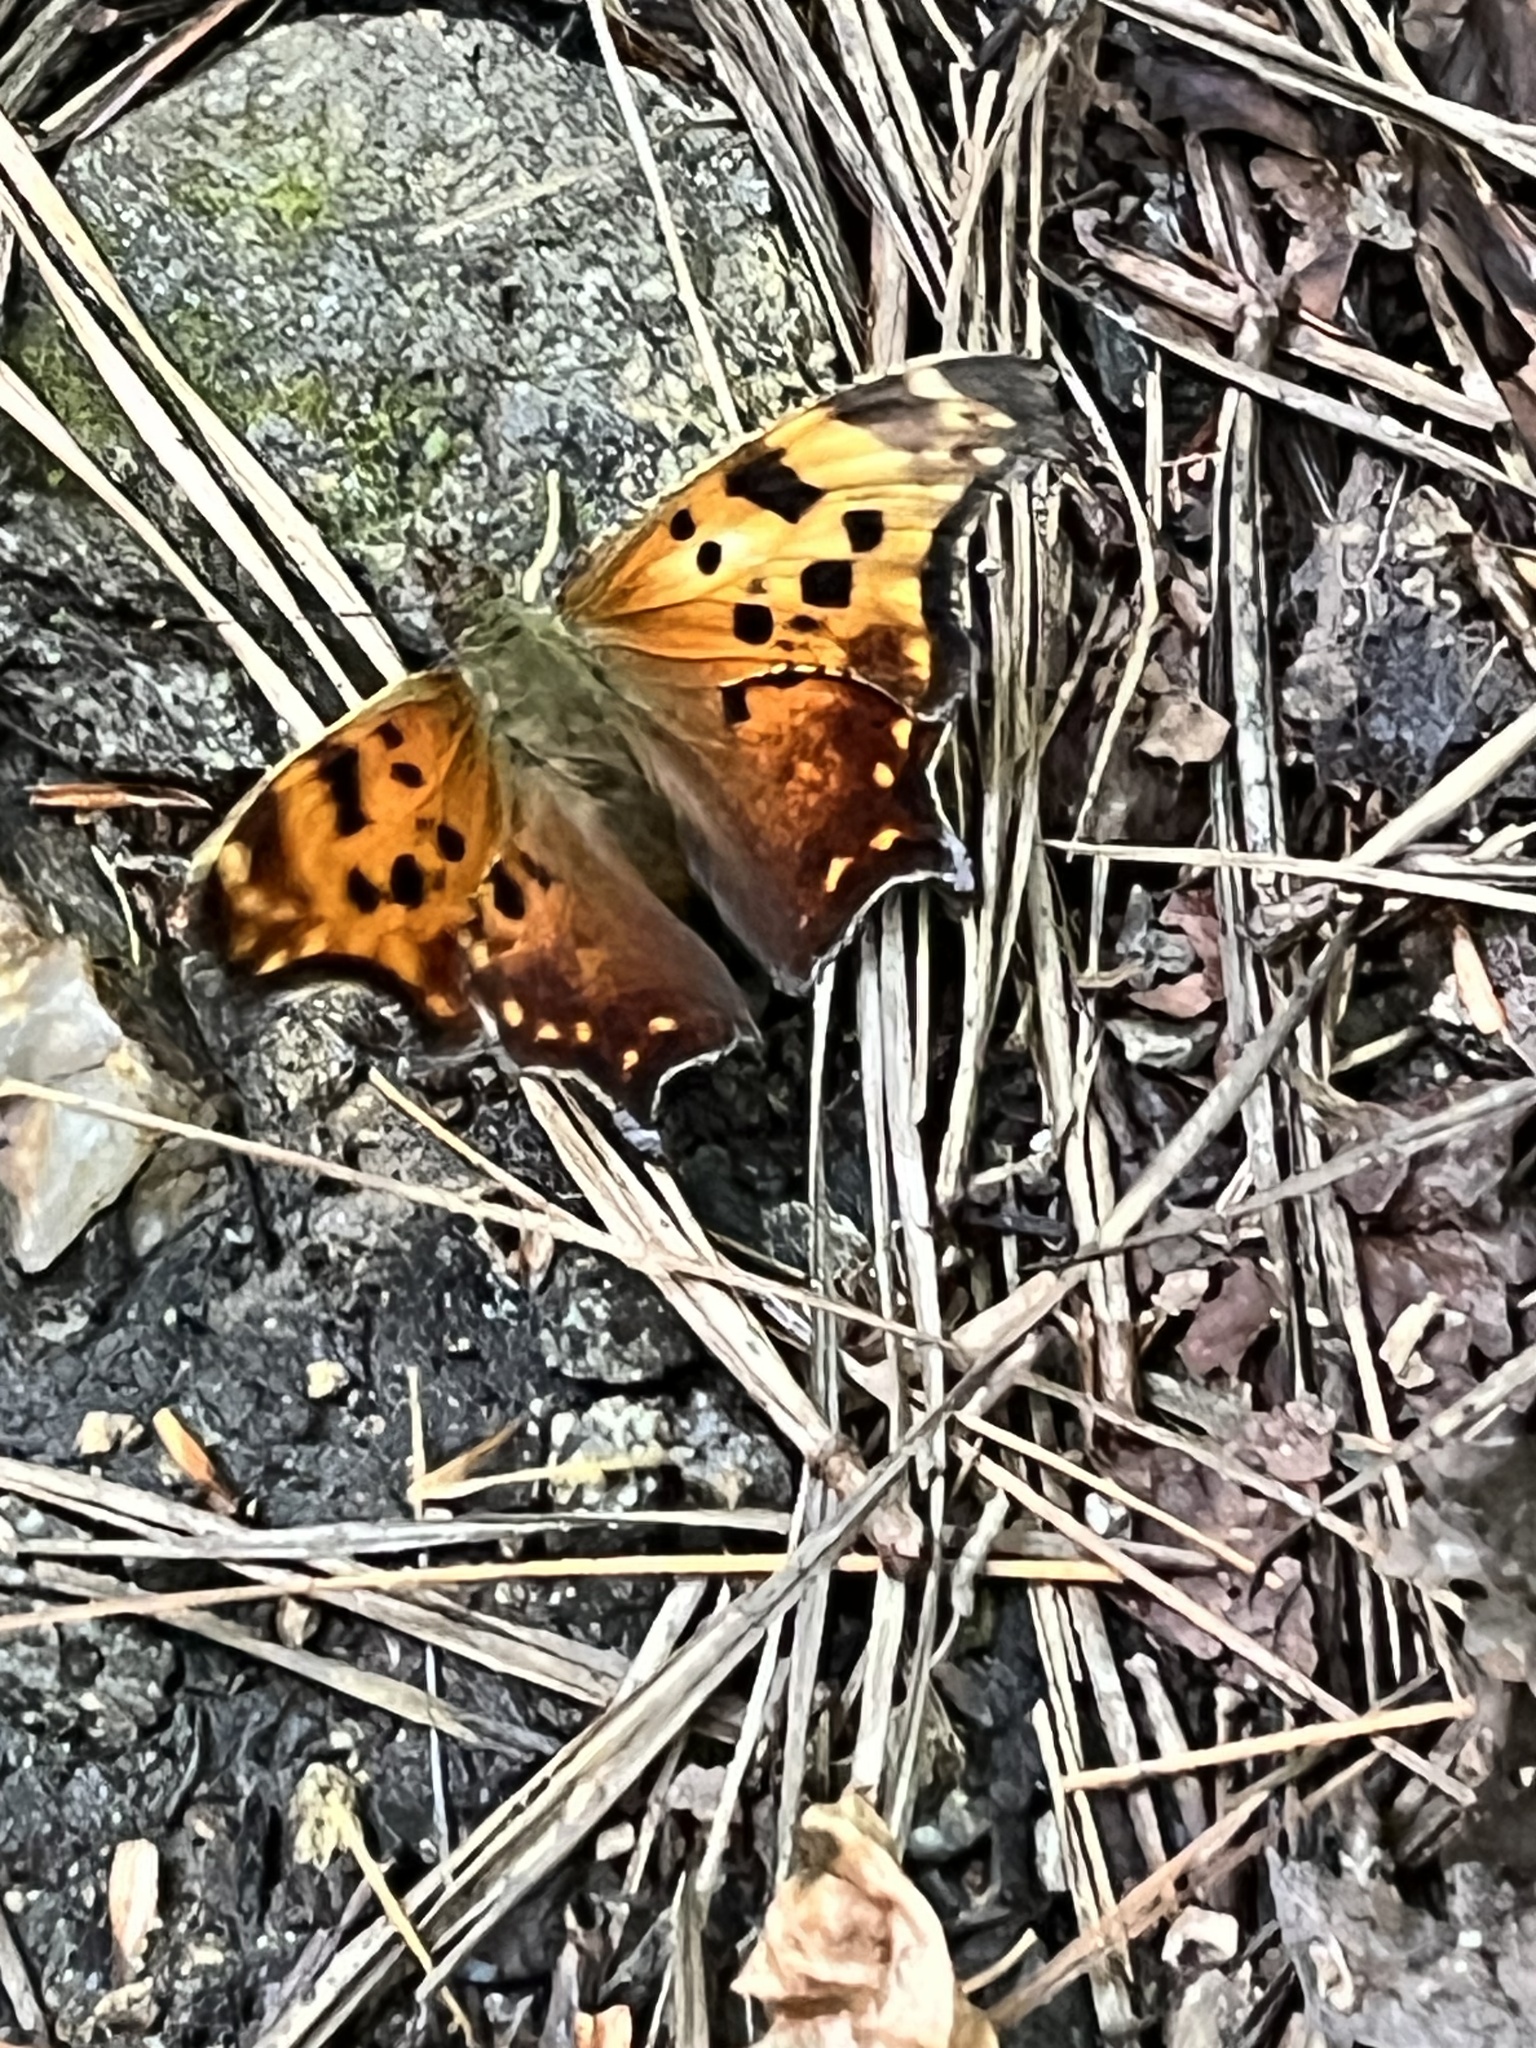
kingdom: Animalia
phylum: Arthropoda
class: Insecta
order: Lepidoptera
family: Nymphalidae
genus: Polygonia
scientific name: Polygonia comma
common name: Eastern comma
